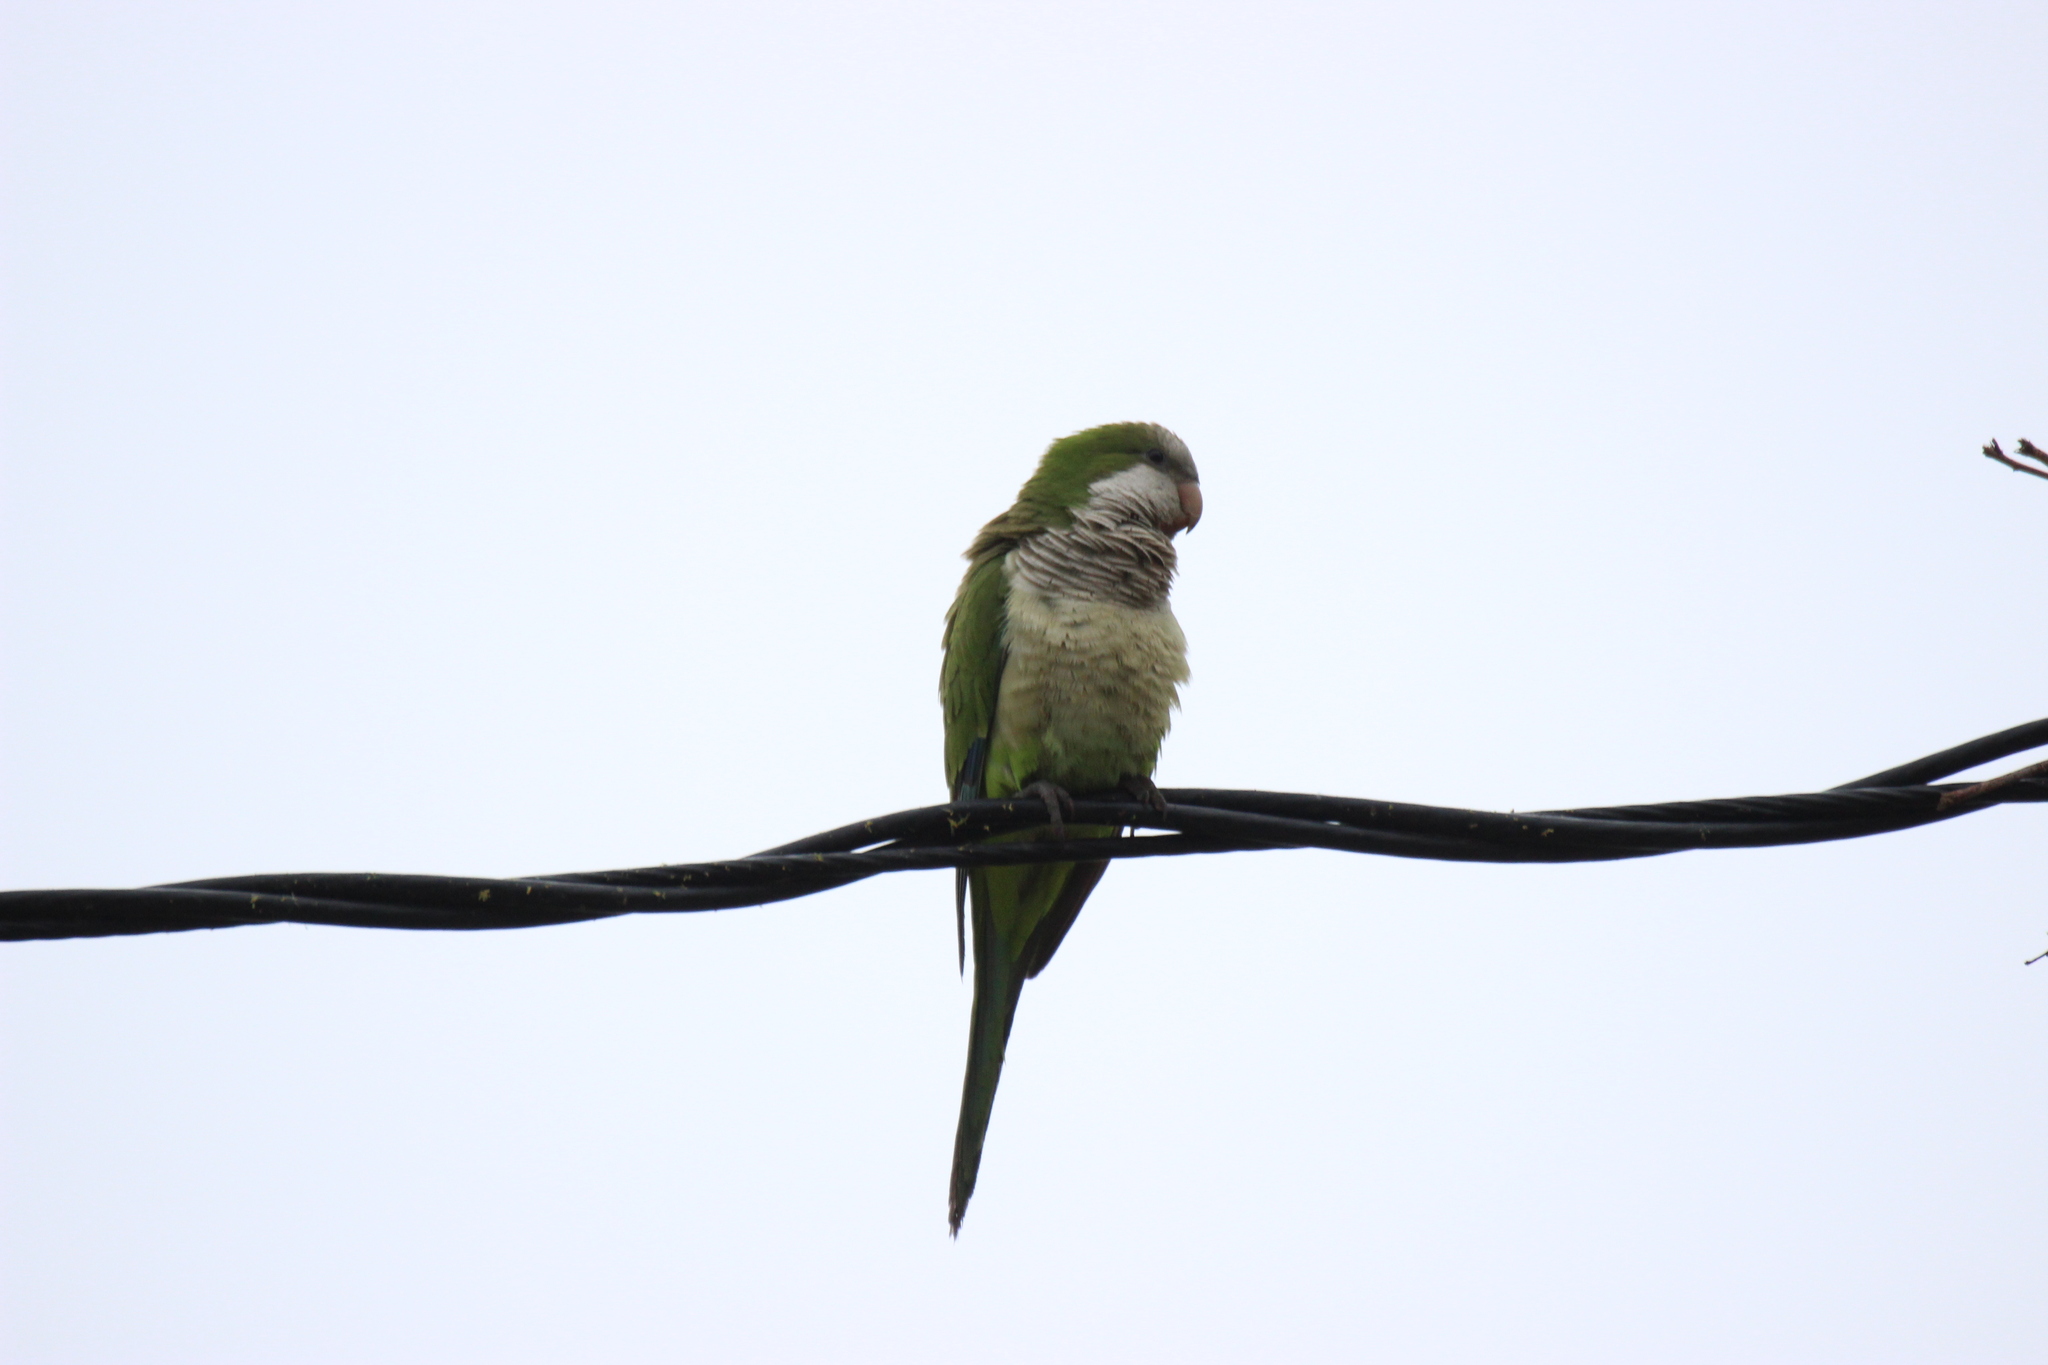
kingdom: Animalia
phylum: Chordata
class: Aves
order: Psittaciformes
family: Psittacidae
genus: Myiopsitta
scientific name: Myiopsitta monachus
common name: Monk parakeet
